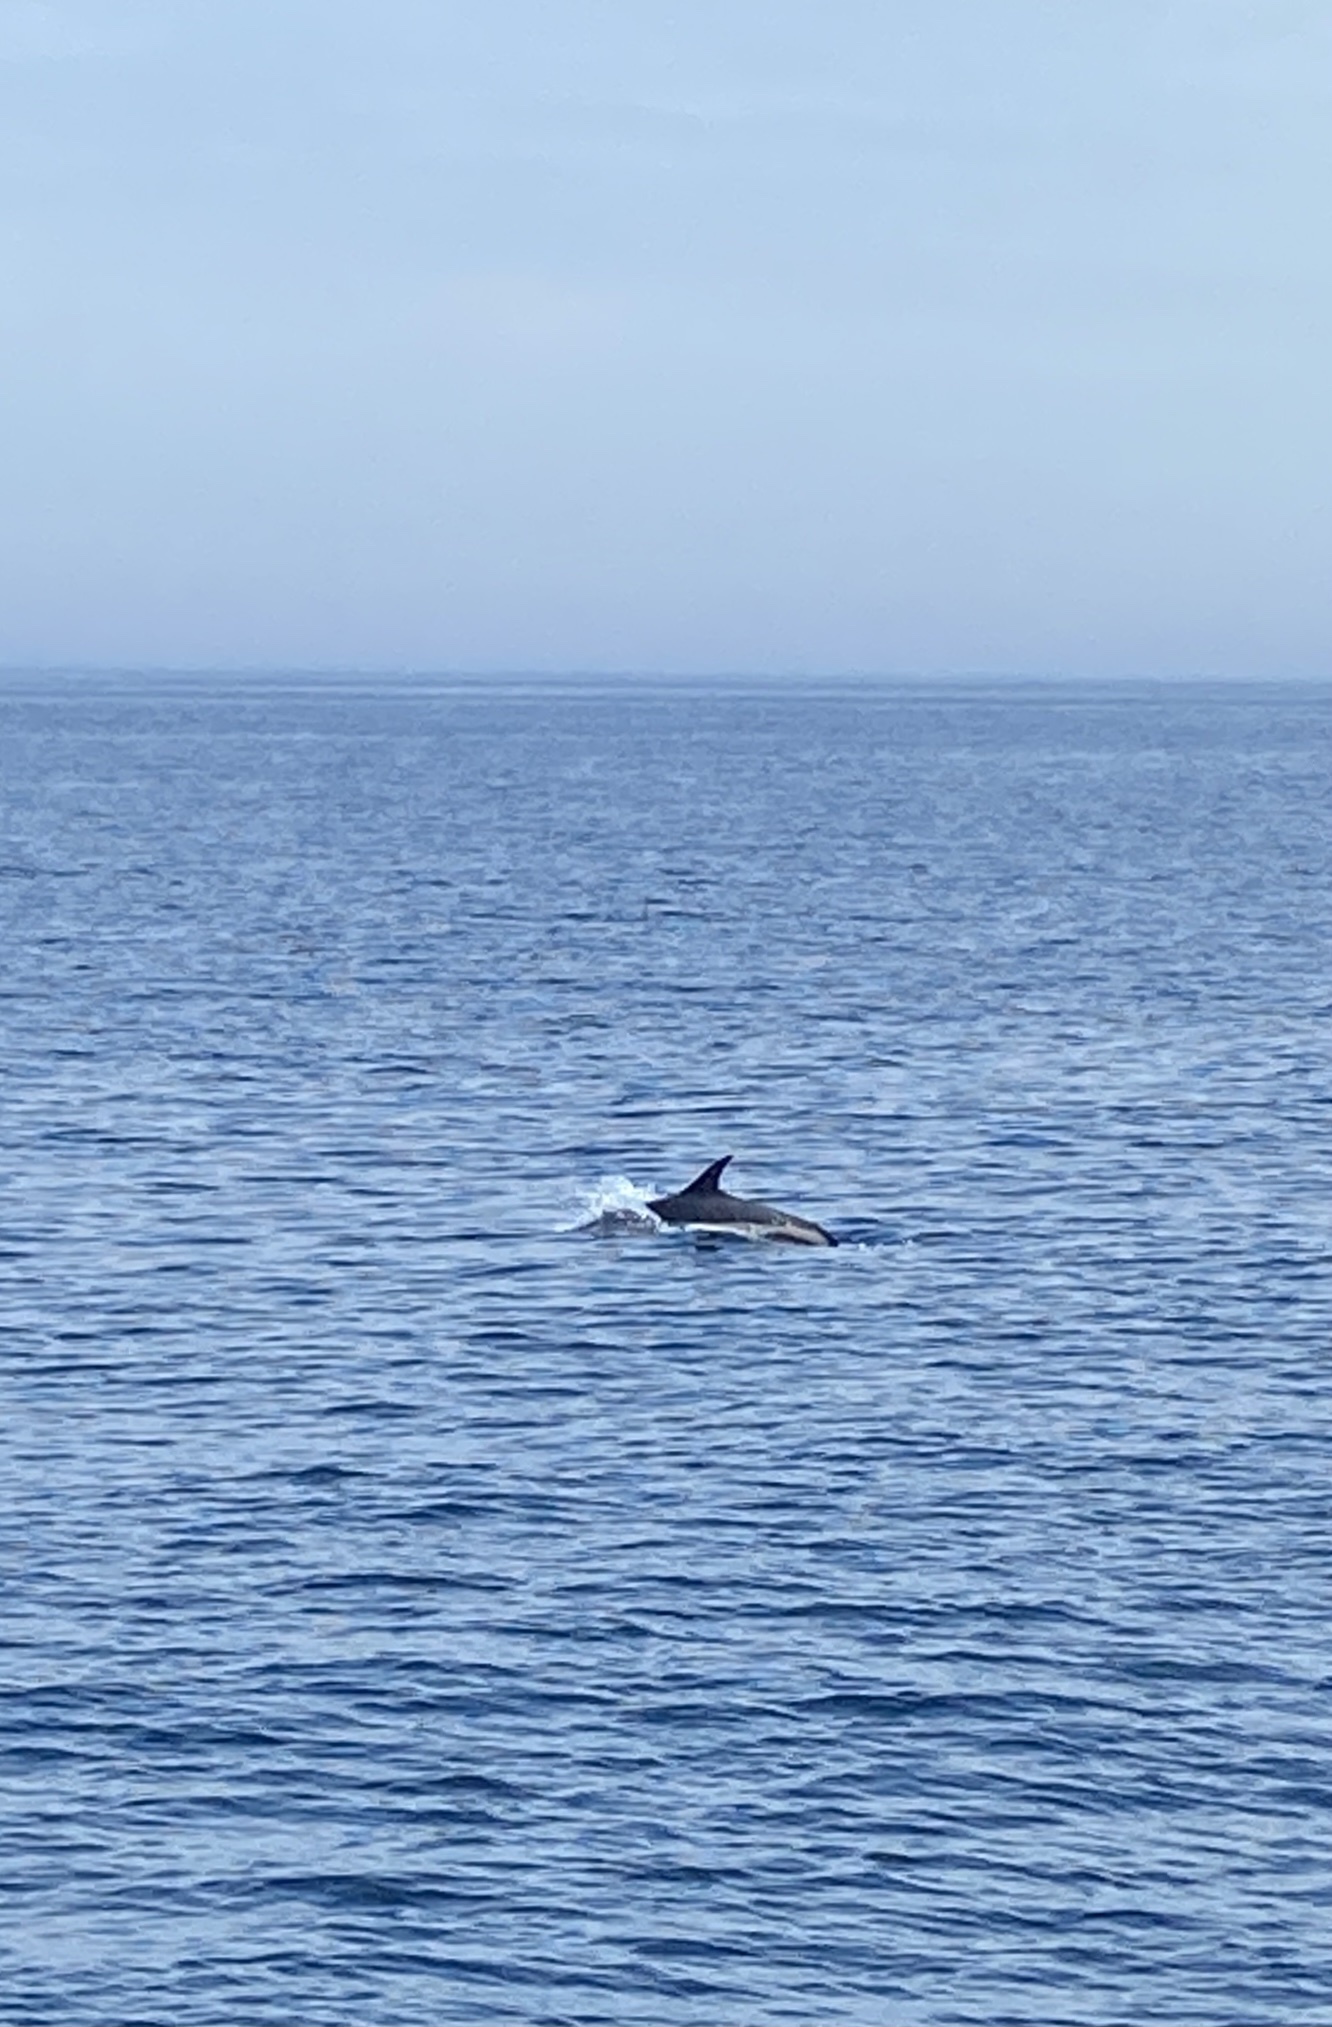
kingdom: Animalia
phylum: Chordata
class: Mammalia
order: Cetacea
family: Delphinidae
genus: Lagenorhynchus
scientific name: Lagenorhynchus acutus
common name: Atlantic white-sided dolphin
